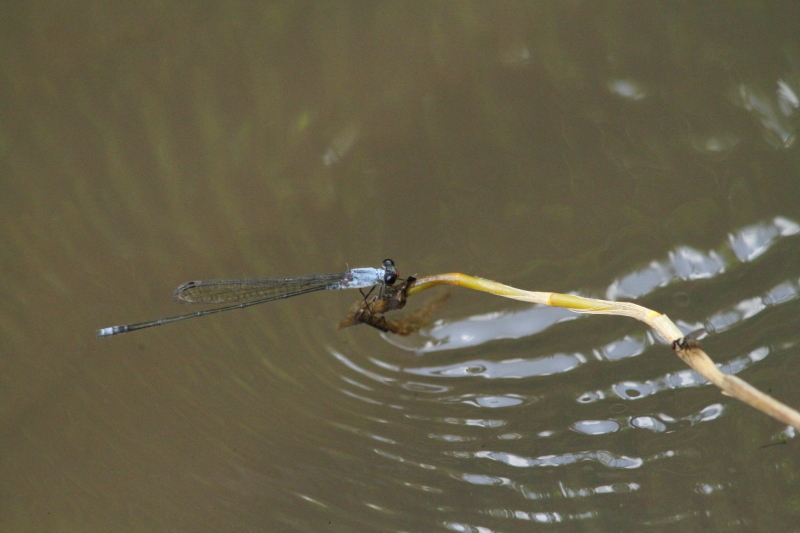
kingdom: Animalia
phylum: Arthropoda
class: Insecta
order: Odonata
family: Coenagrionidae
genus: Pseudagrion
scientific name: Pseudagrion pruinosum
